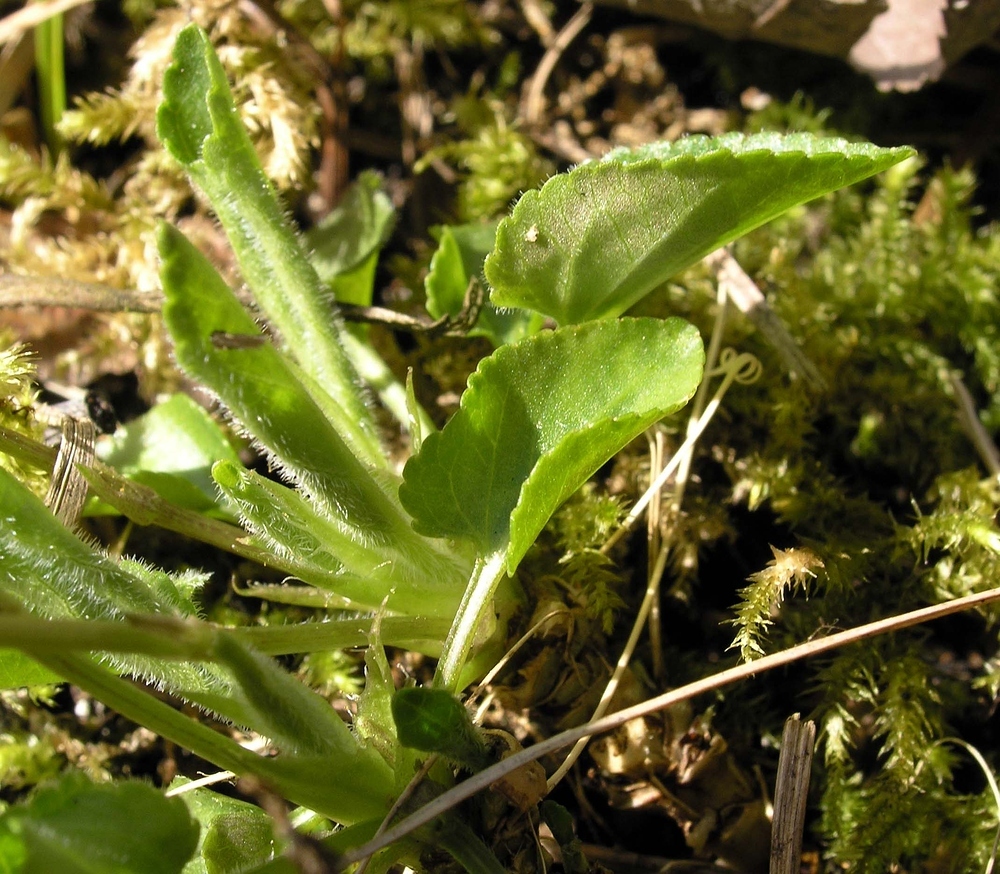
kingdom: Plantae
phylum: Tracheophyta
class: Magnoliopsida
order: Malpighiales
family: Violaceae
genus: Viola
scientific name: Viola hirta
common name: Hairy violet
